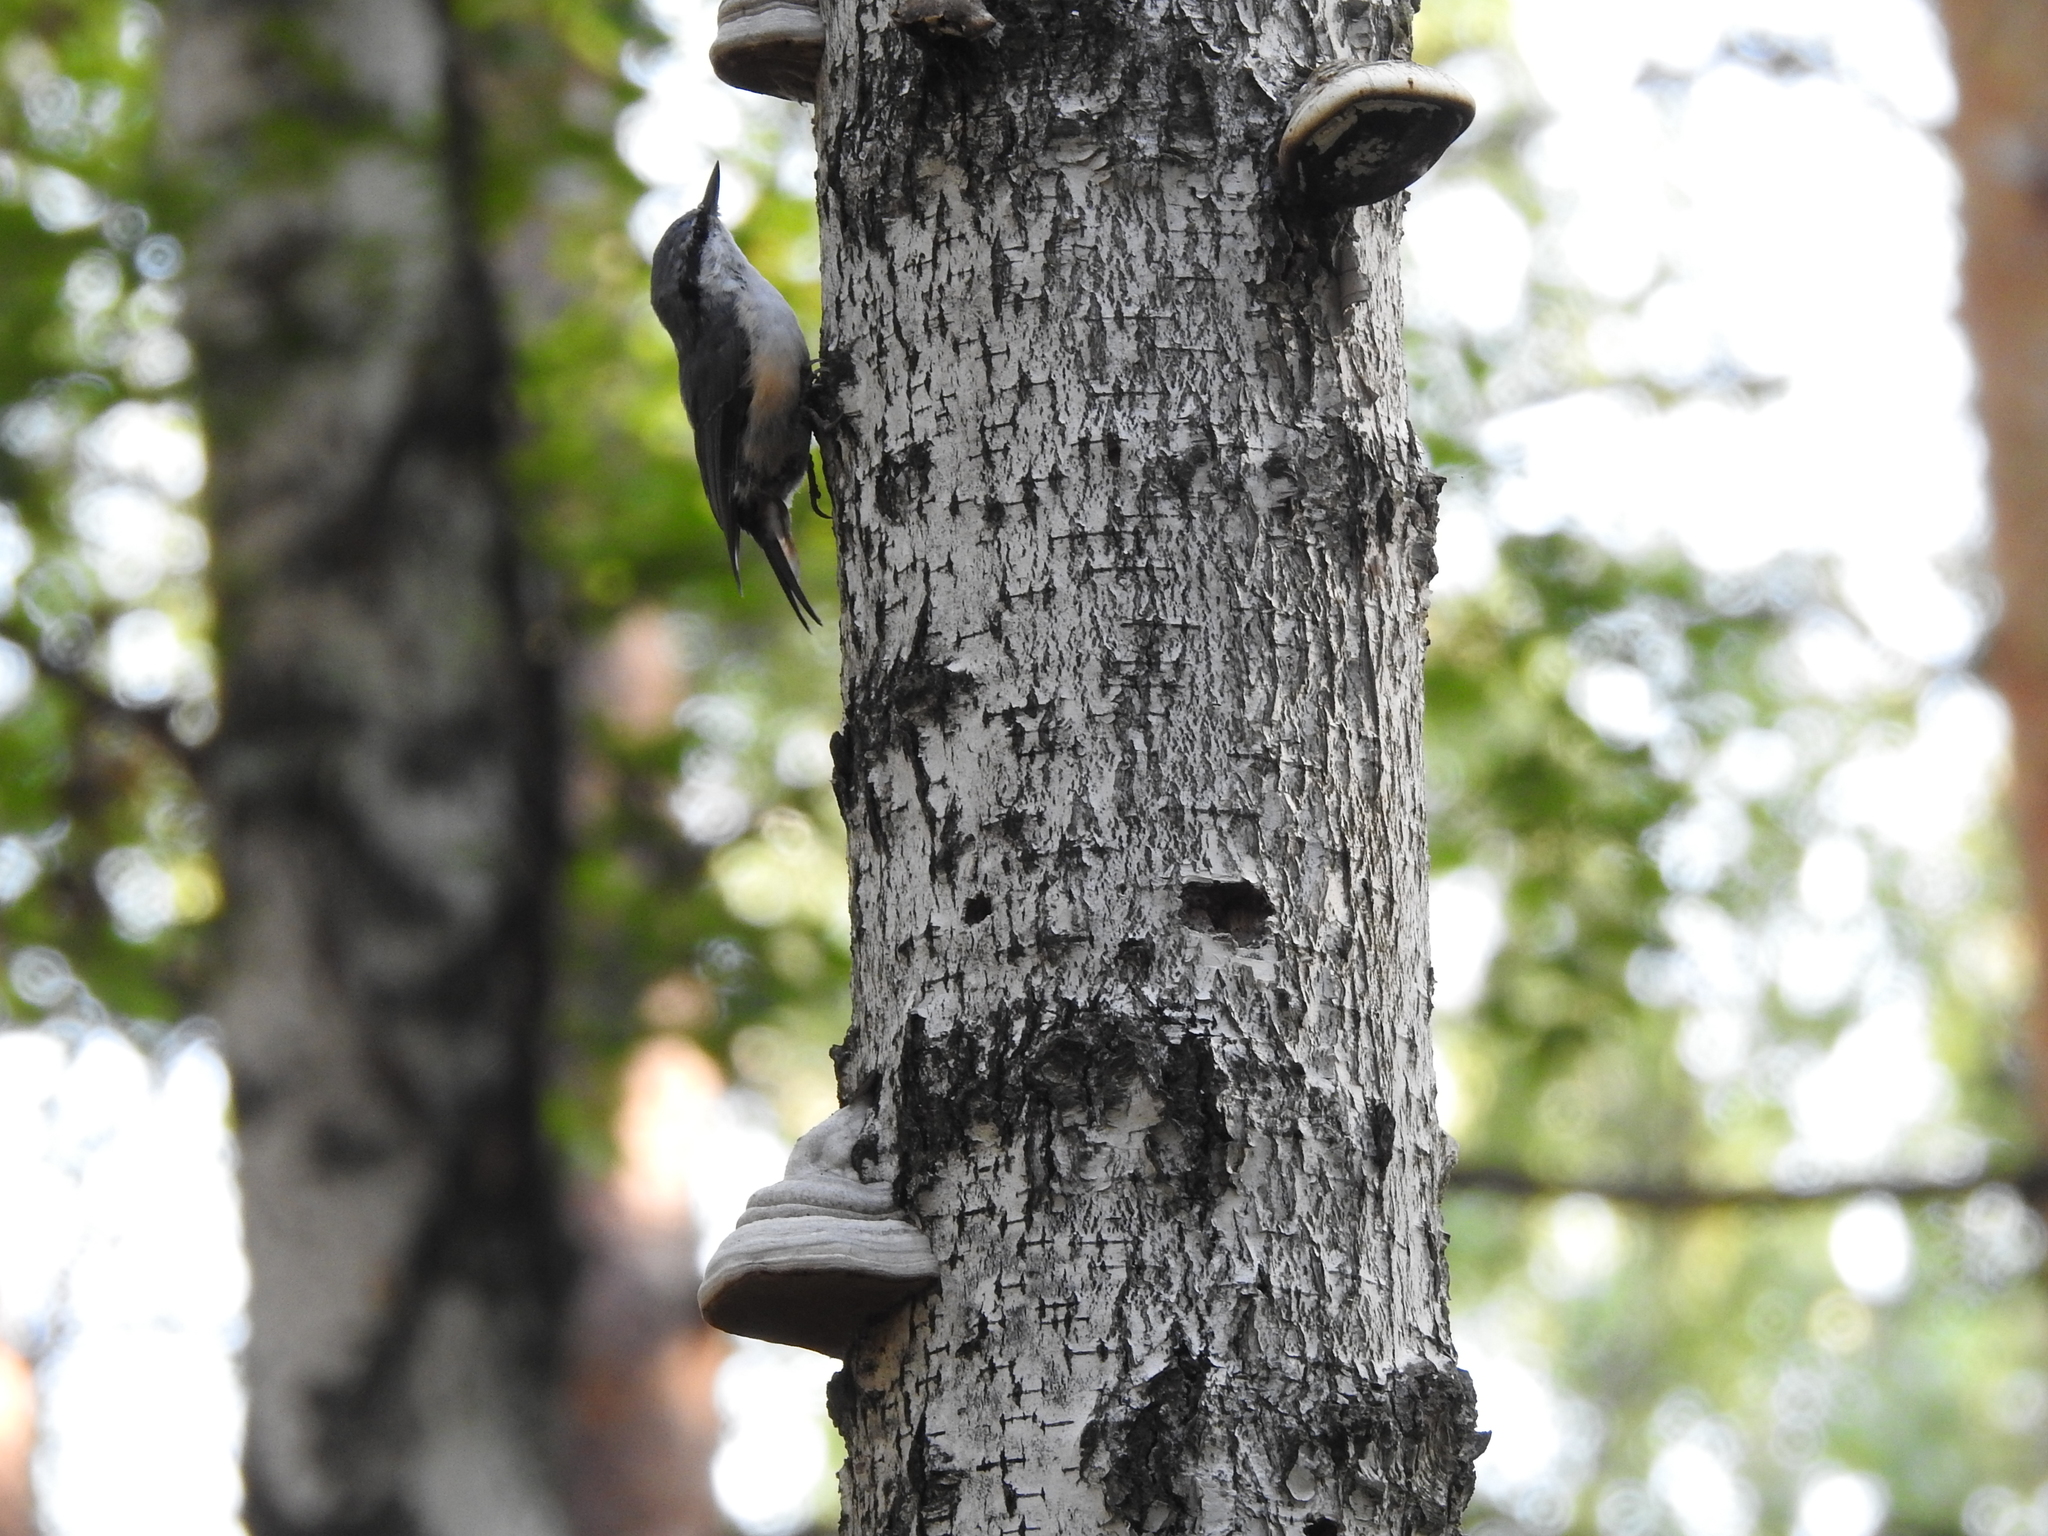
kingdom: Animalia
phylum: Chordata
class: Aves
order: Passeriformes
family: Sittidae
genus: Sitta
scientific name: Sitta europaea
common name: Eurasian nuthatch
